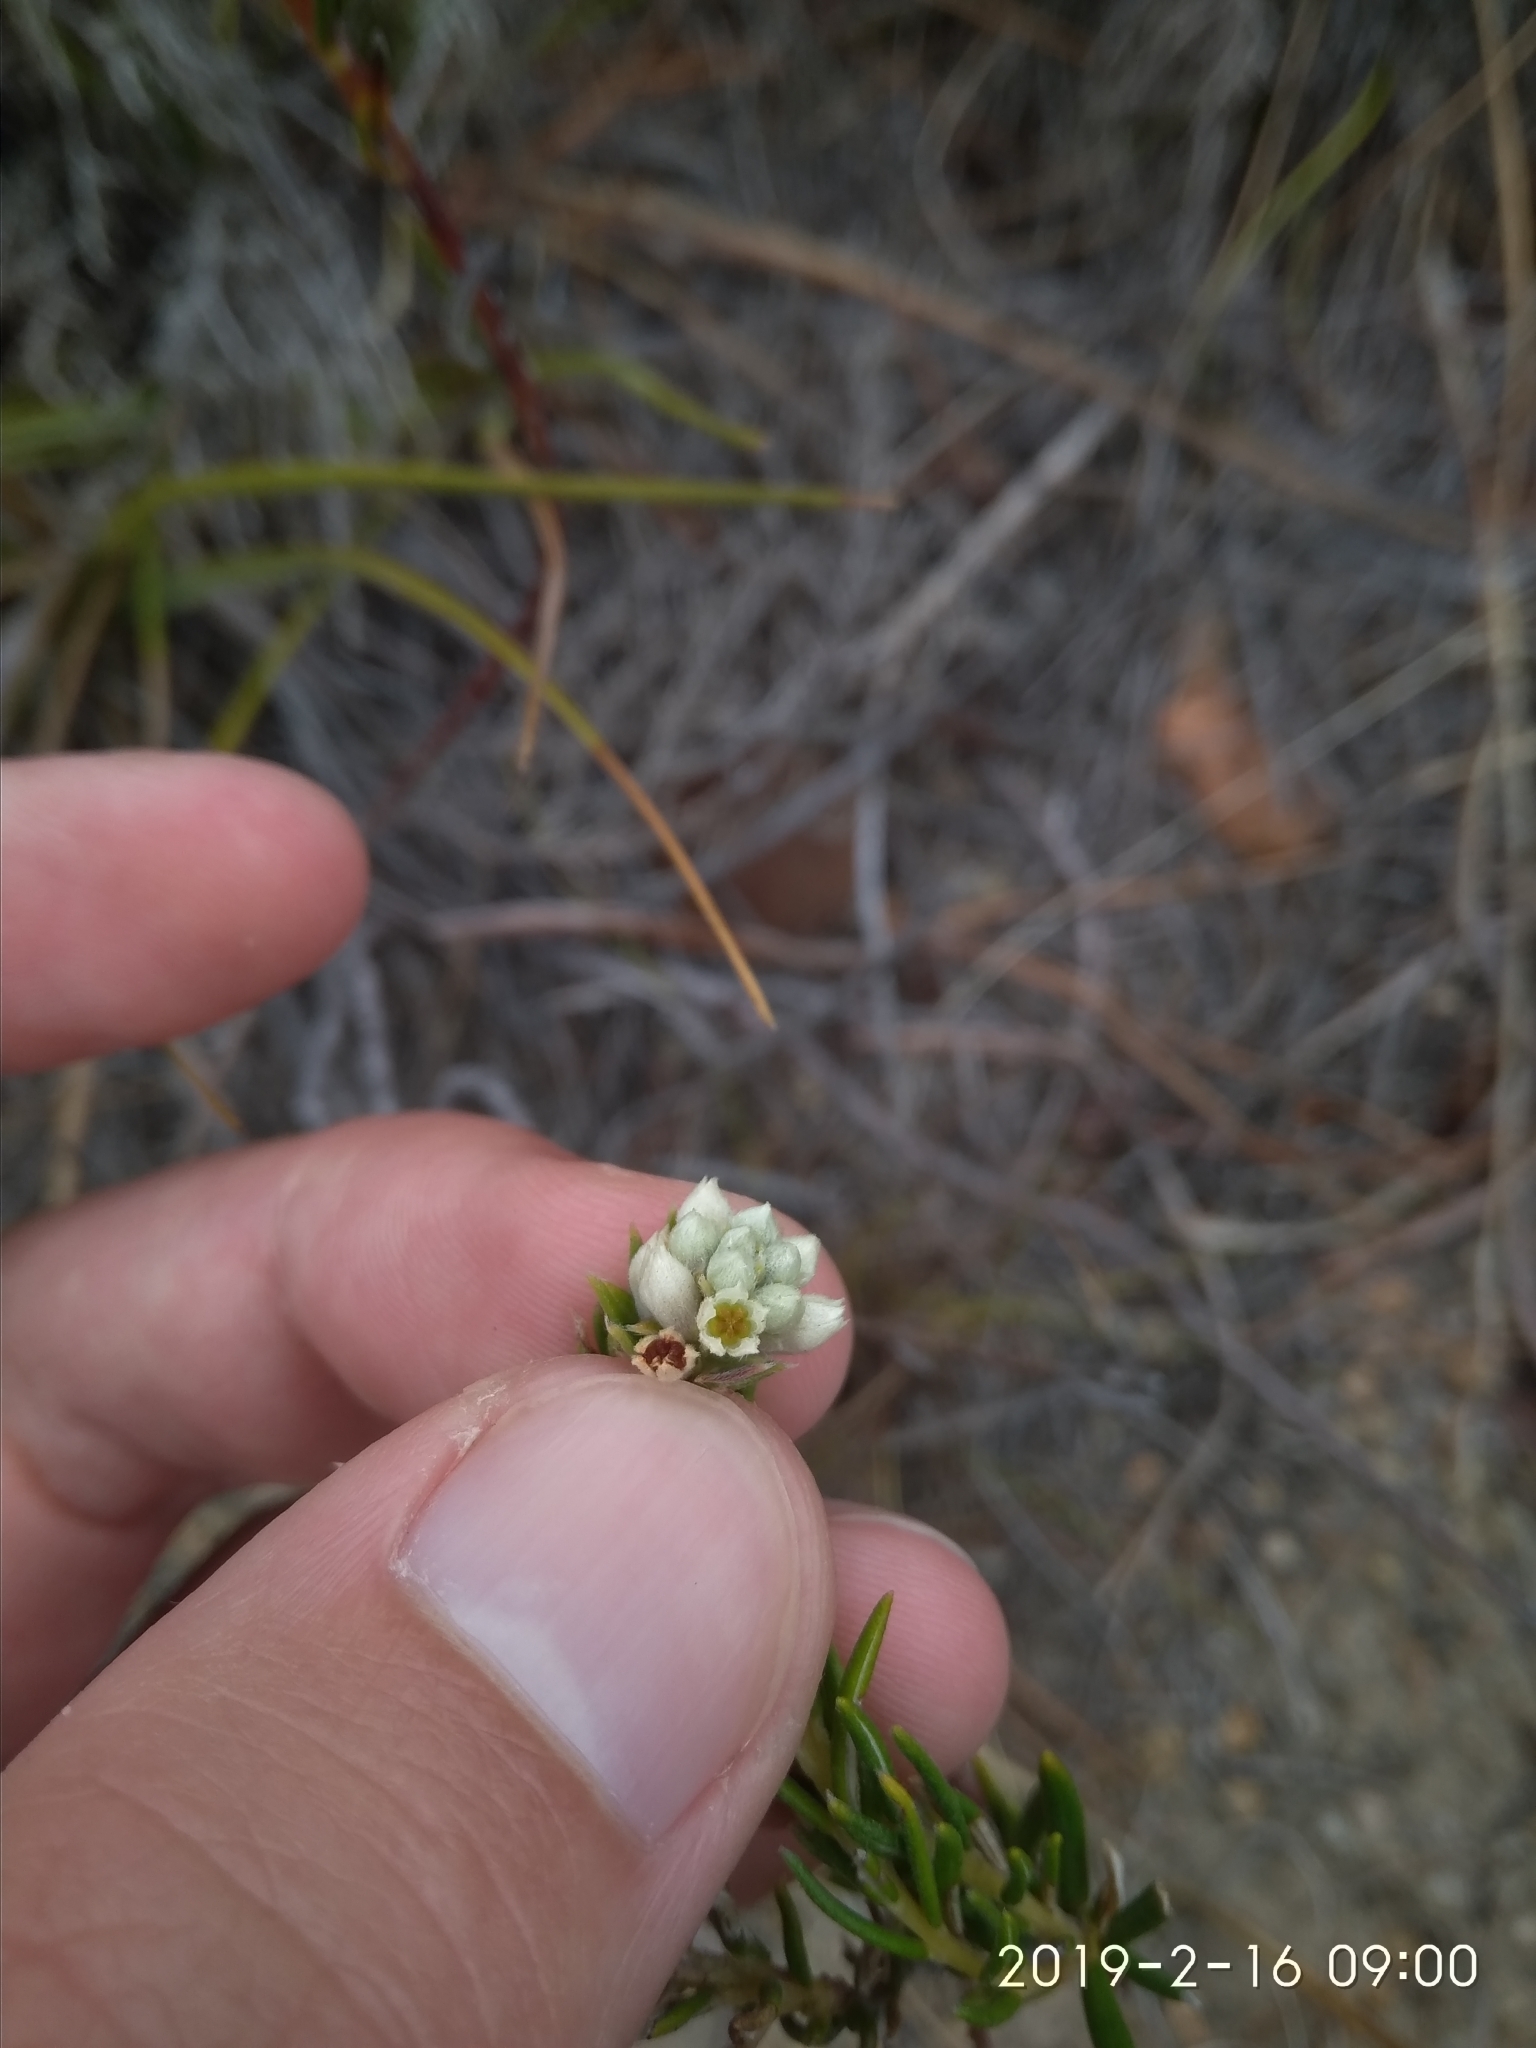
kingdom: Plantae
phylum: Tracheophyta
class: Magnoliopsida
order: Rosales
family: Rhamnaceae
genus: Phylica
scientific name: Phylica imberbis
